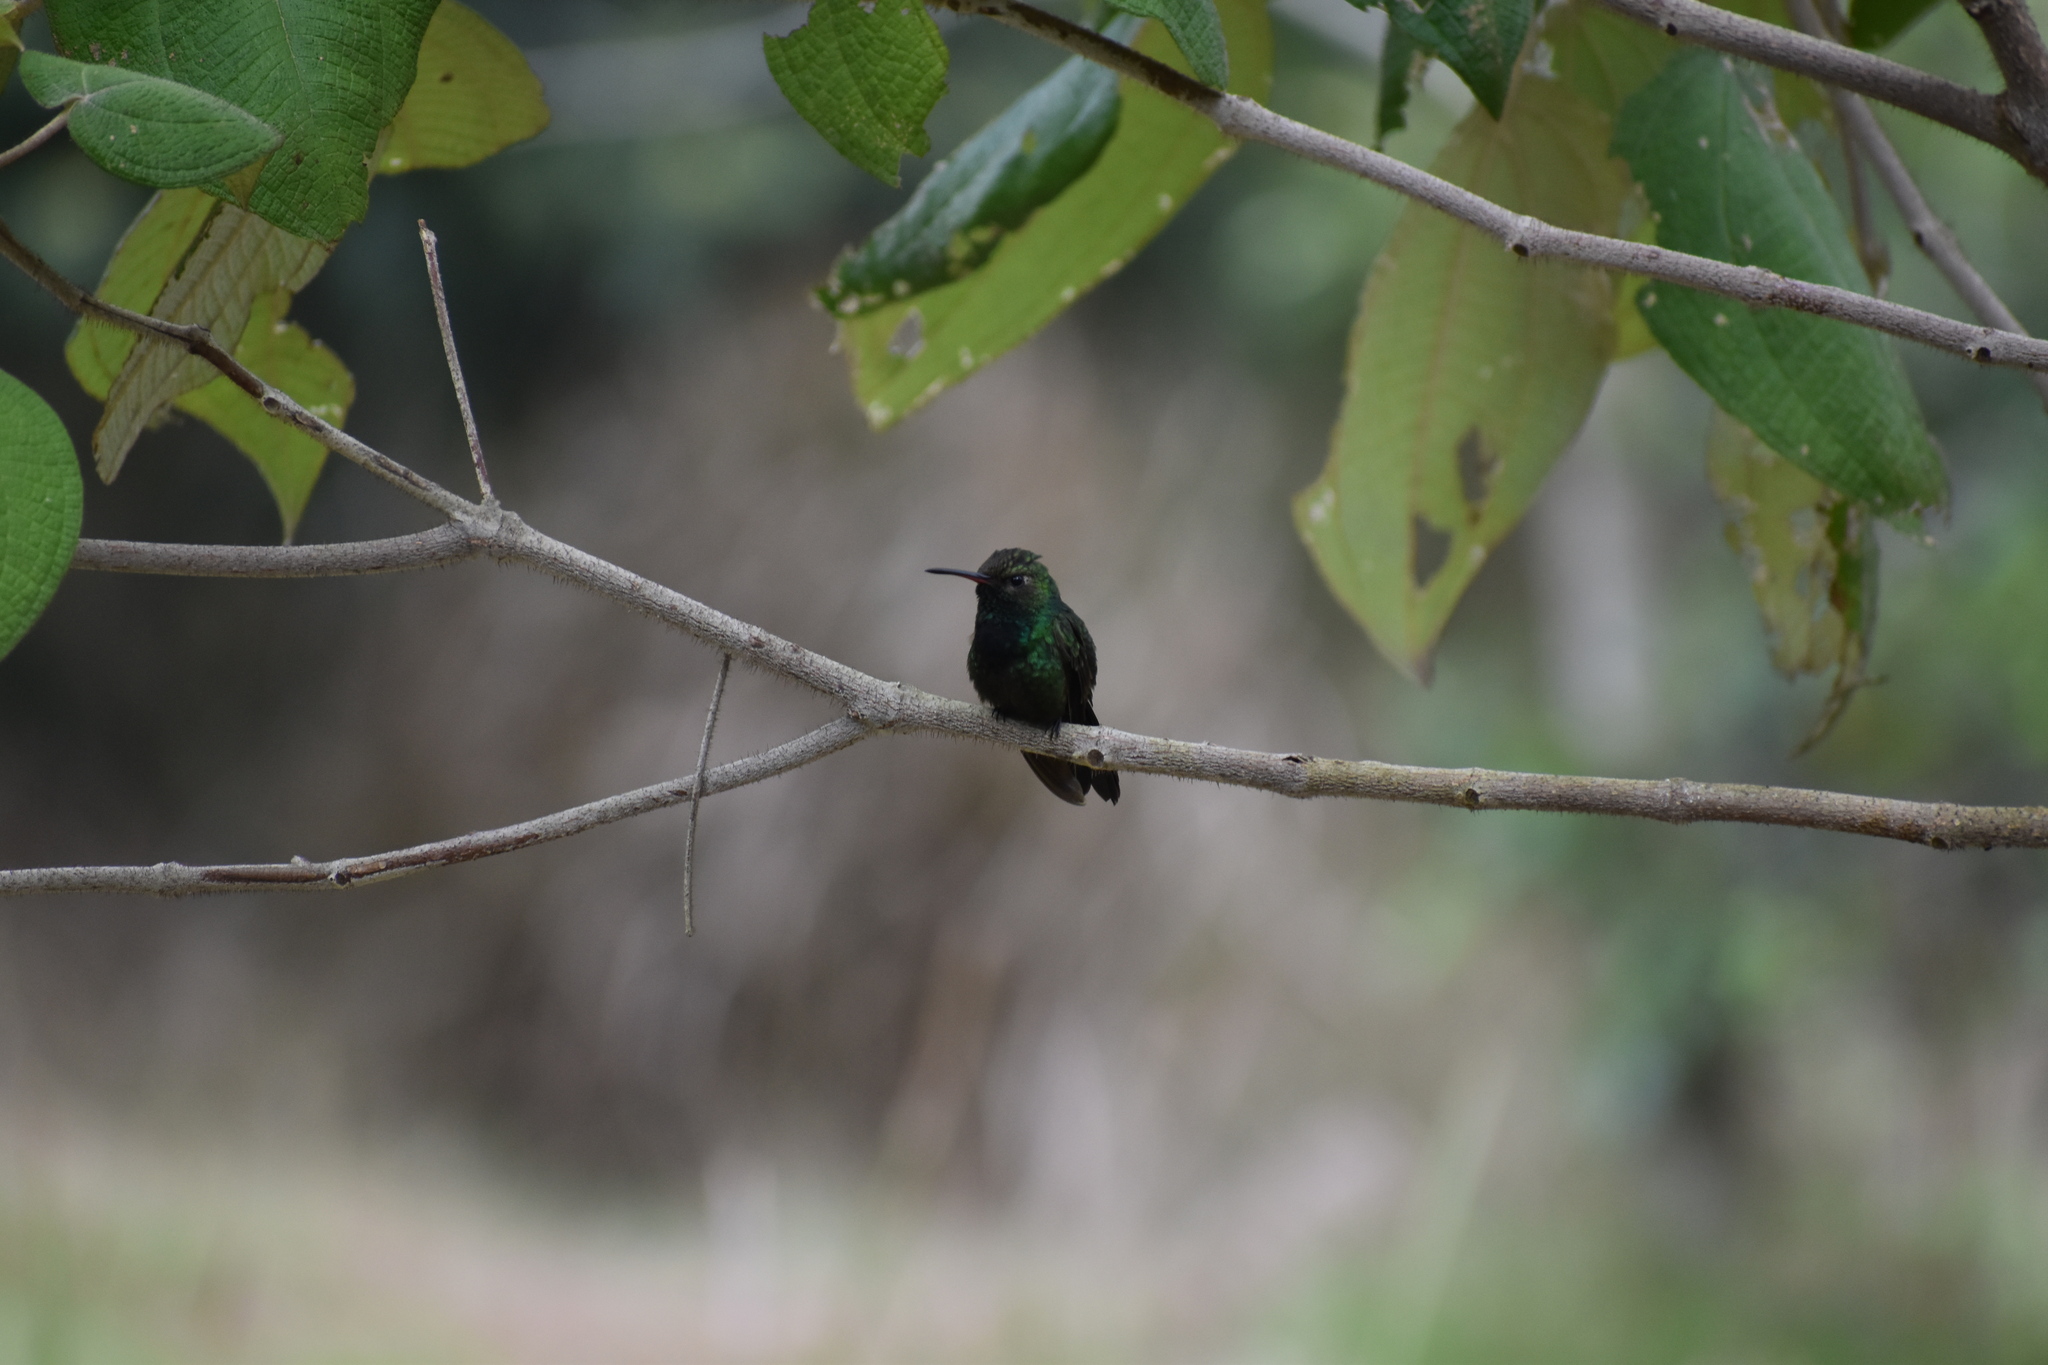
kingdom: Animalia
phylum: Chordata
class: Aves
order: Apodiformes
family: Trochilidae
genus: Riccordia
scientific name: Riccordia swainsonii
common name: Hispaniolan emerald
